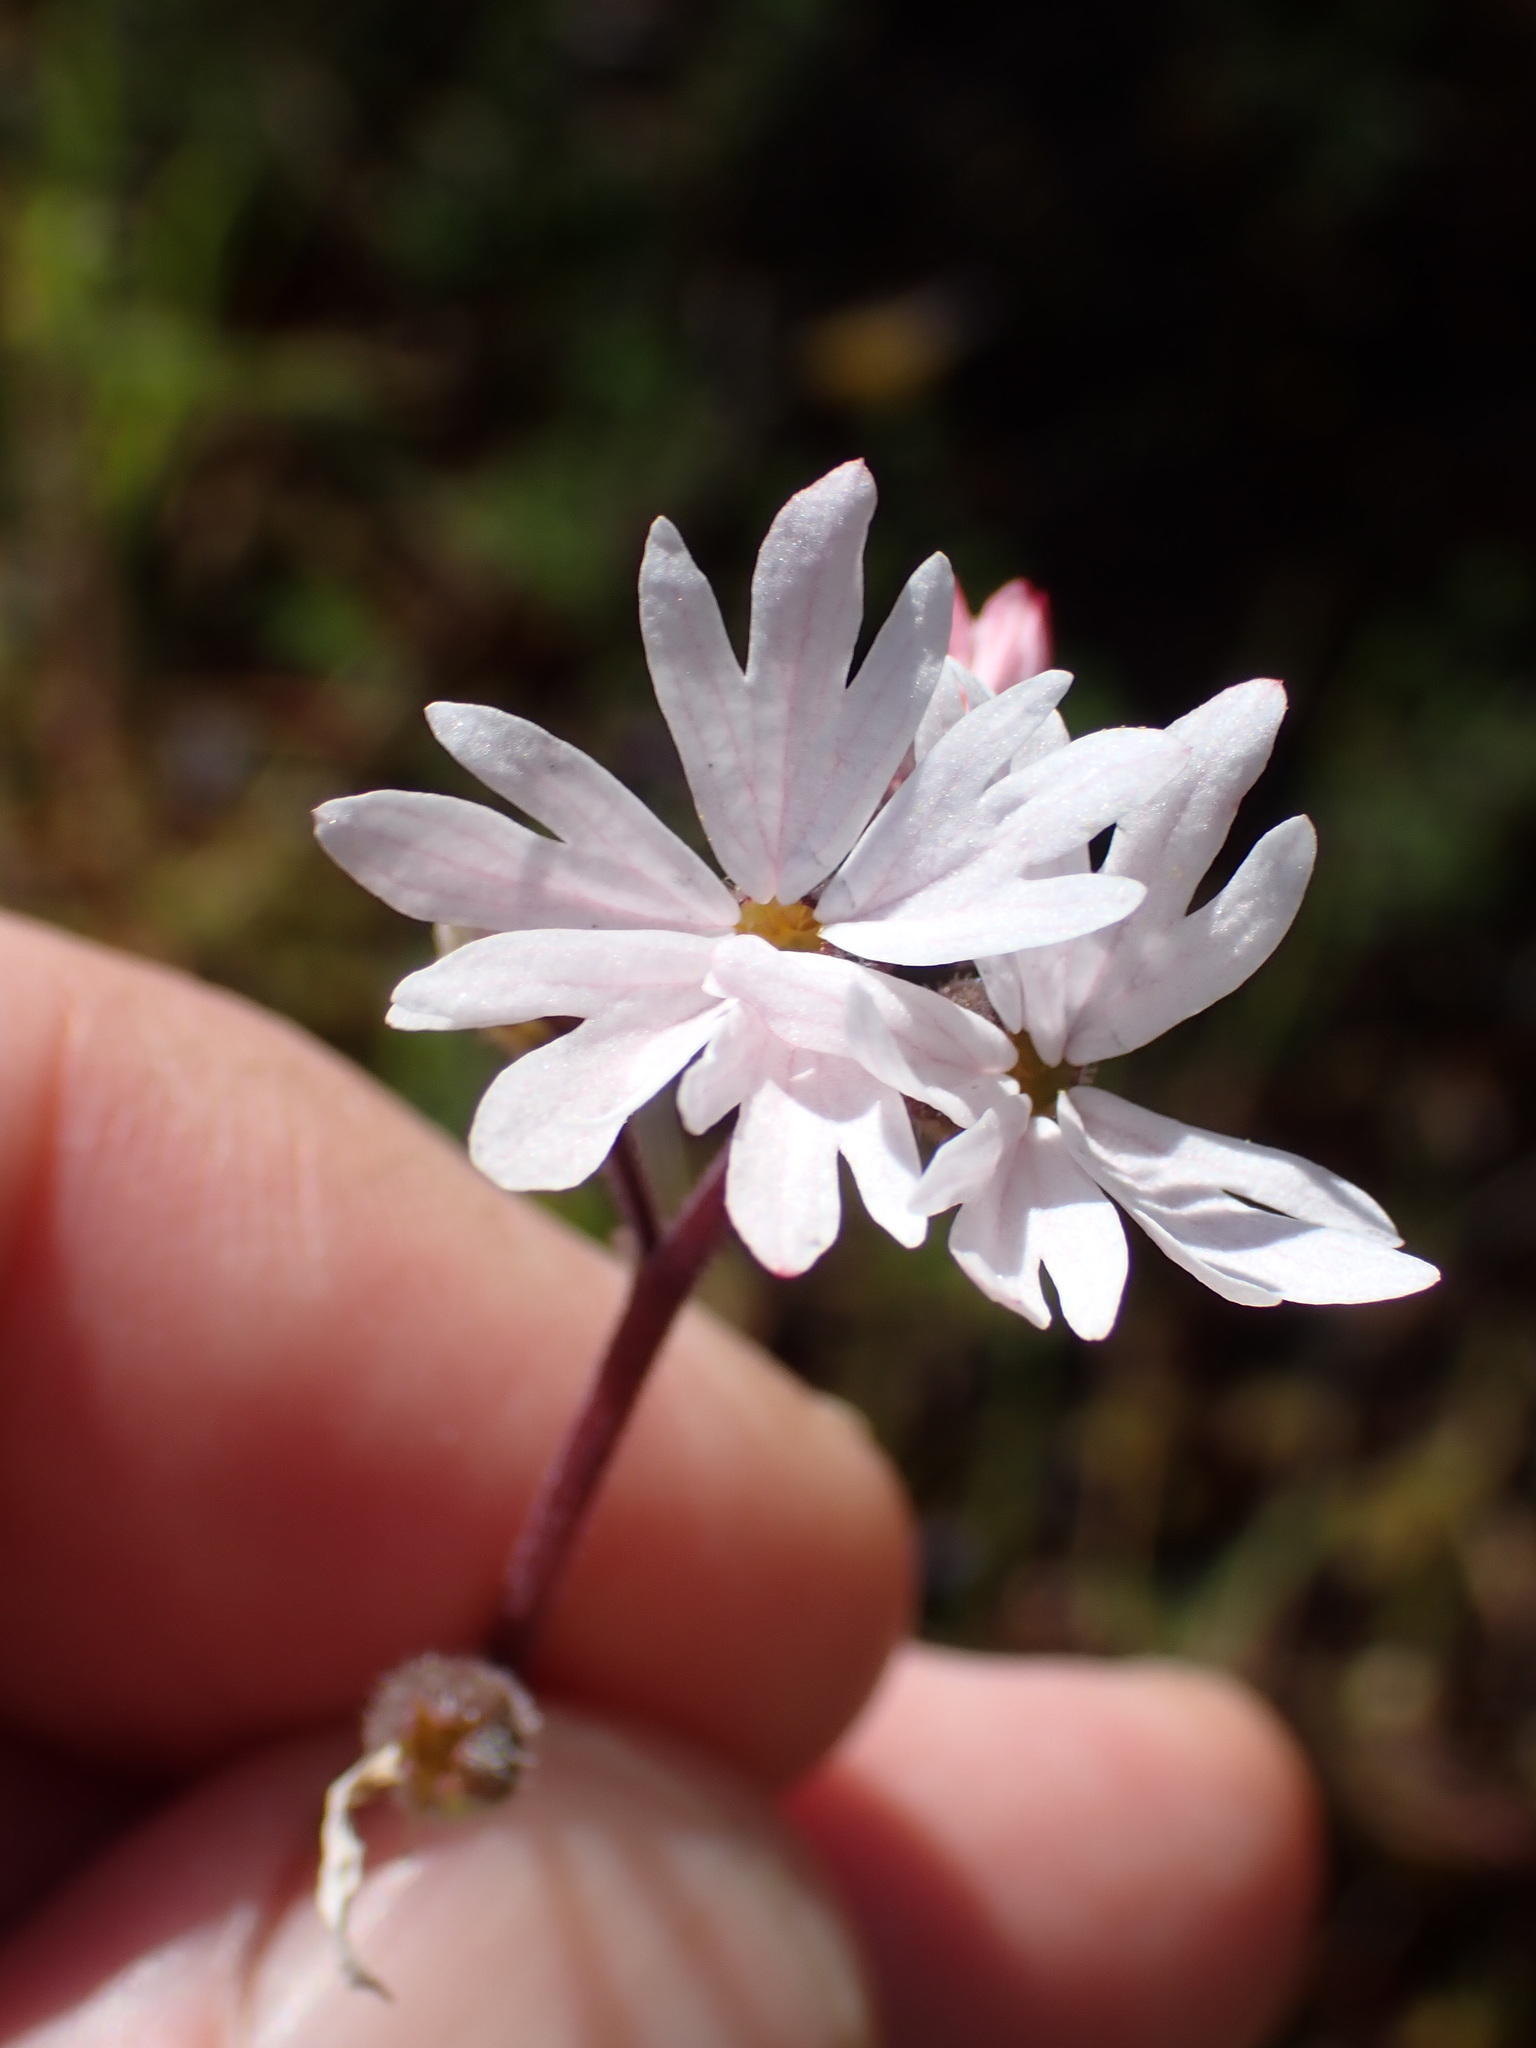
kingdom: Plantae
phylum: Tracheophyta
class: Magnoliopsida
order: Saxifragales
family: Saxifragaceae
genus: Lithophragma
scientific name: Lithophragma parviflorum
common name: Small-flowered fringe-cup
